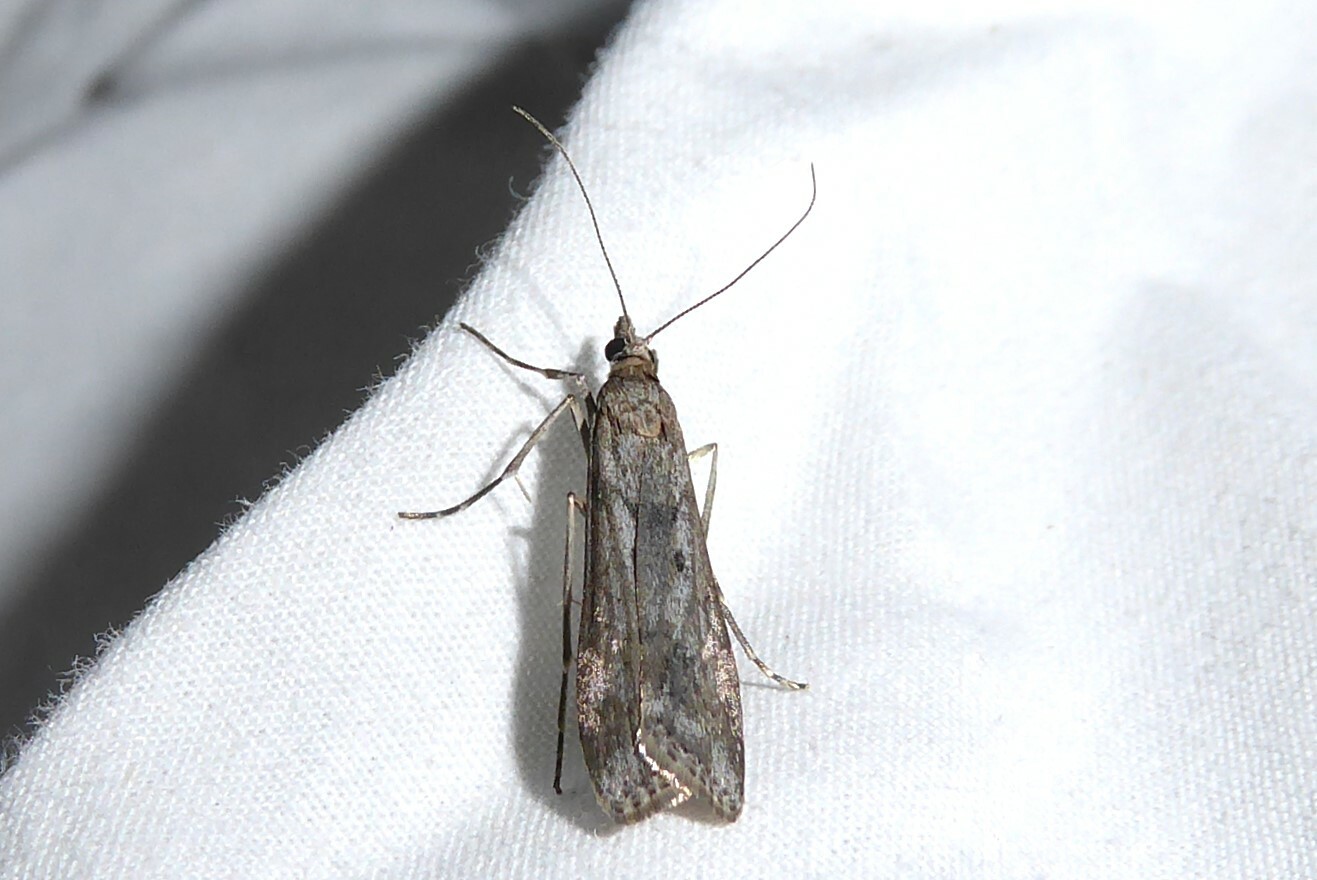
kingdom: Animalia
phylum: Arthropoda
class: Insecta
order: Lepidoptera
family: Crambidae
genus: Eudonia
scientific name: Eudonia leptalea
